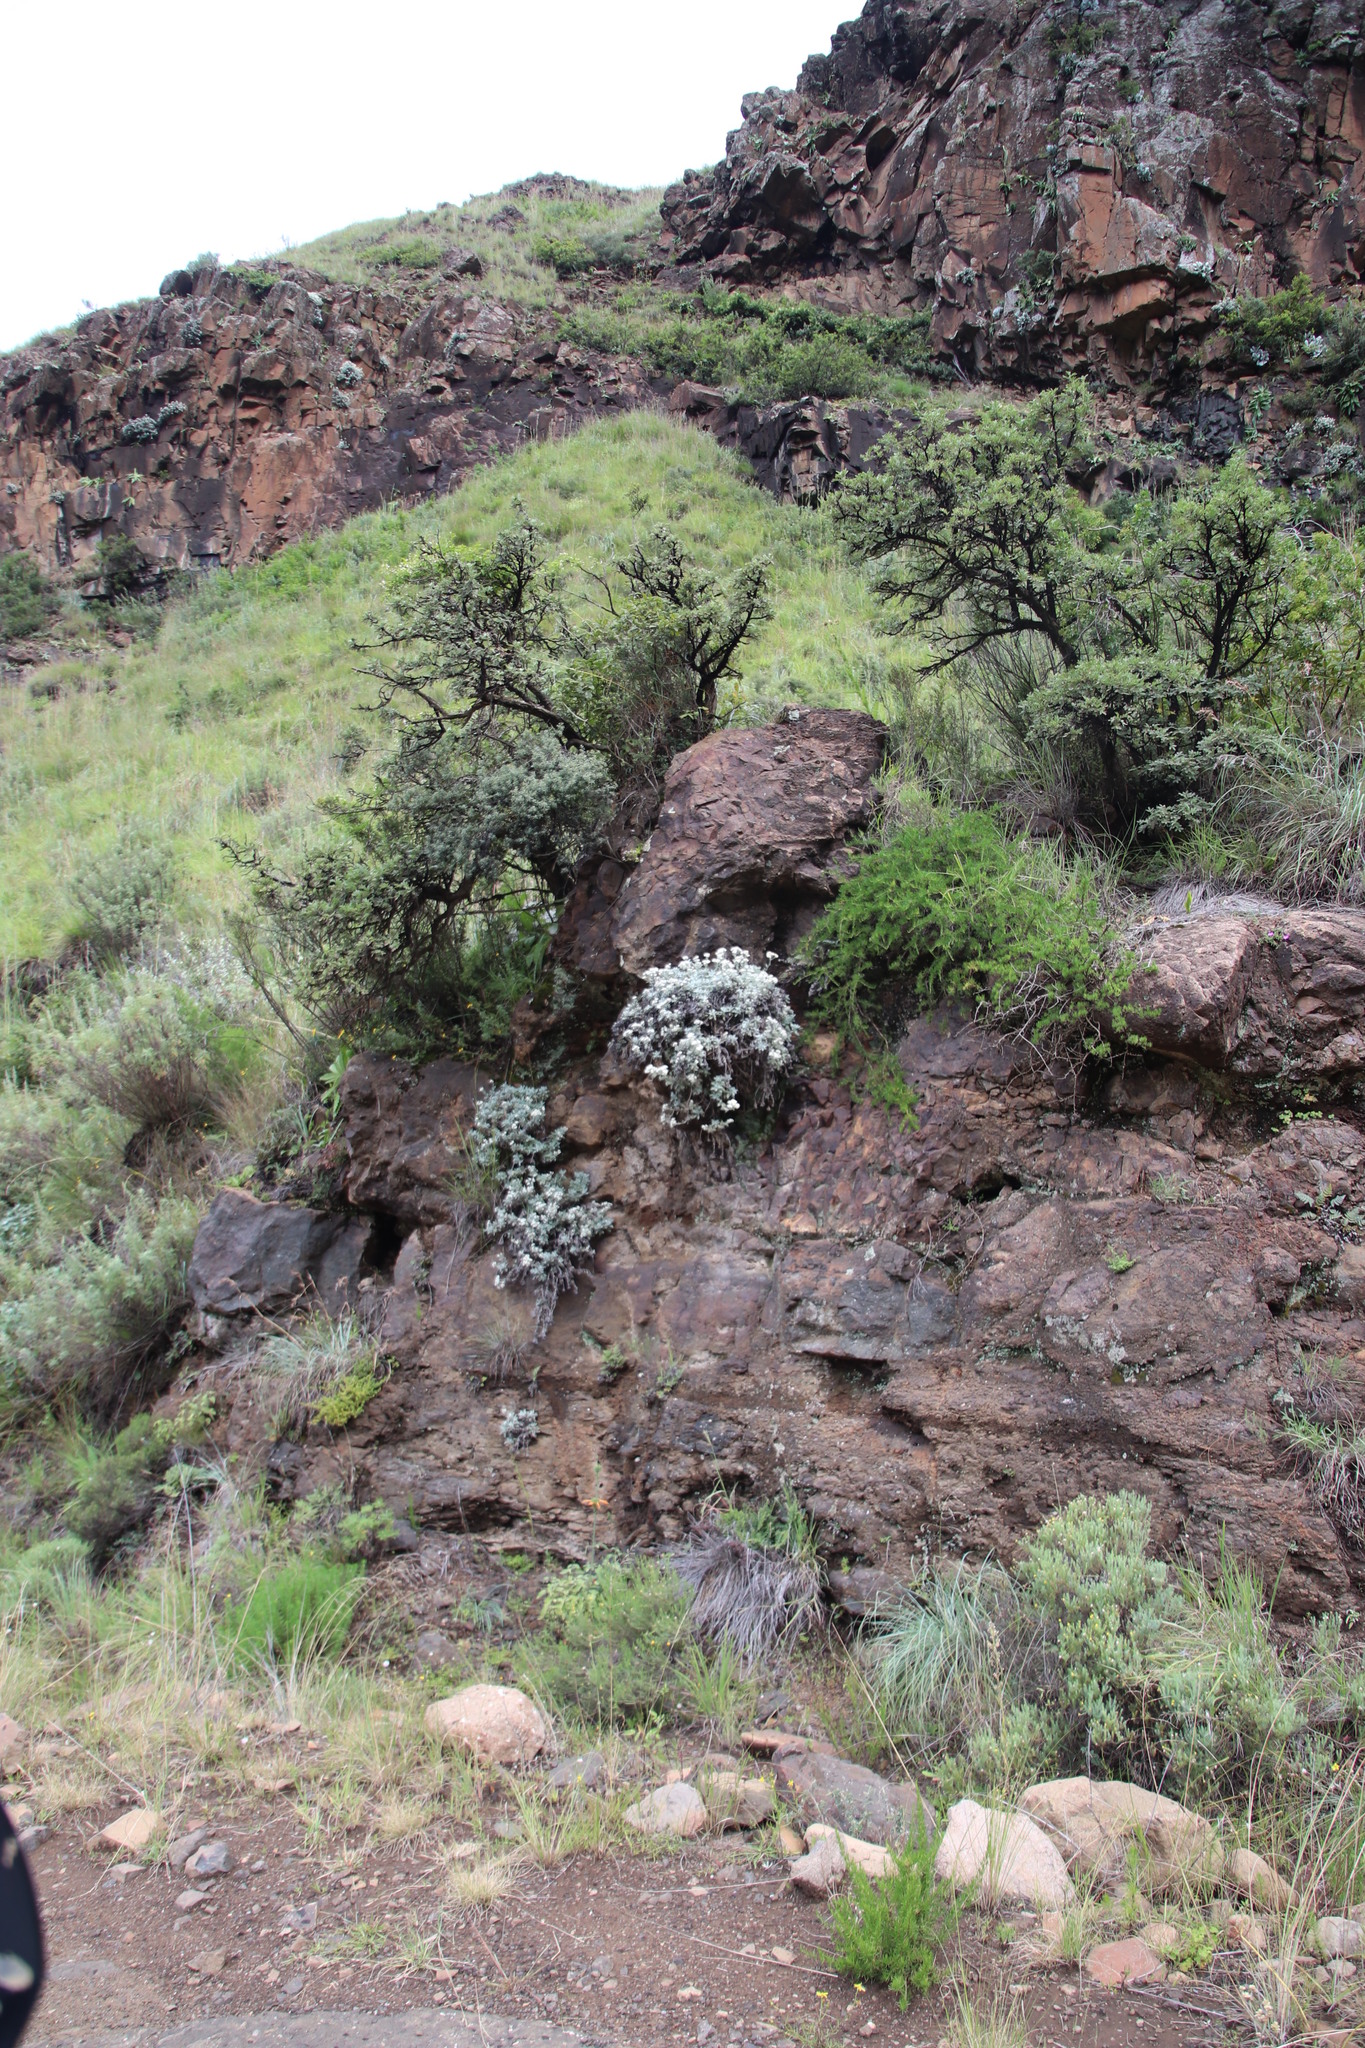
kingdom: Plantae
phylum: Tracheophyta
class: Magnoliopsida
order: Asterales
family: Asteraceae
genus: Helichrysum
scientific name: Helichrysum sutherlandii
